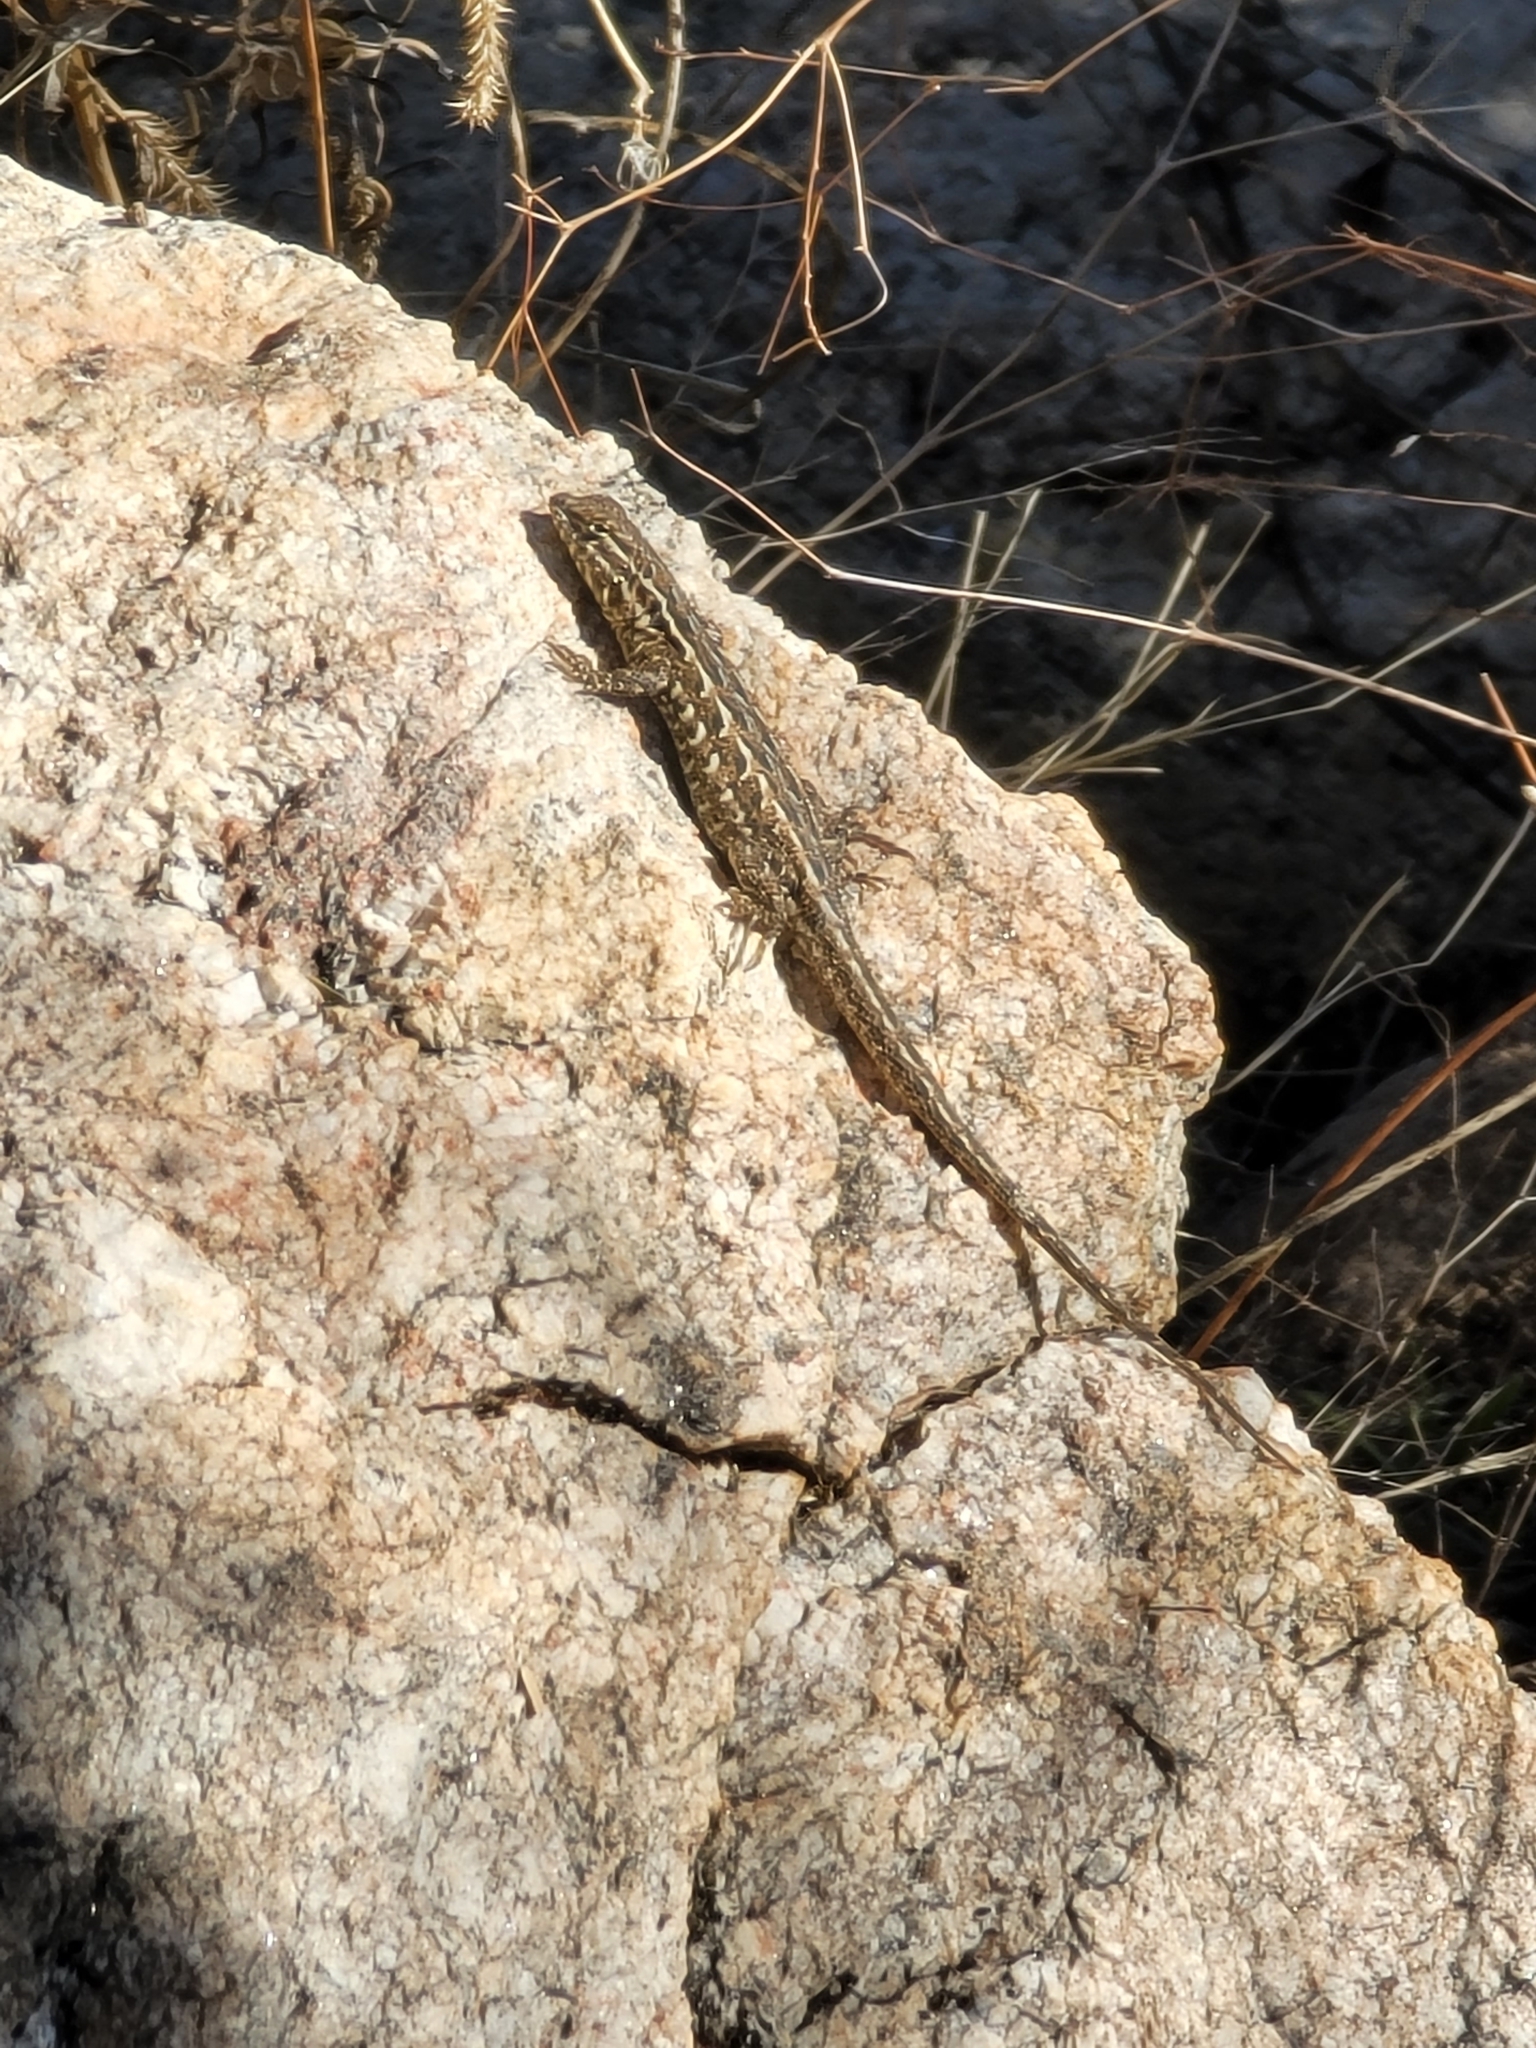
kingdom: Animalia
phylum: Chordata
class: Squamata
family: Phrynosomatidae
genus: Uta
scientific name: Uta stansburiana
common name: Side-blotched lizard
